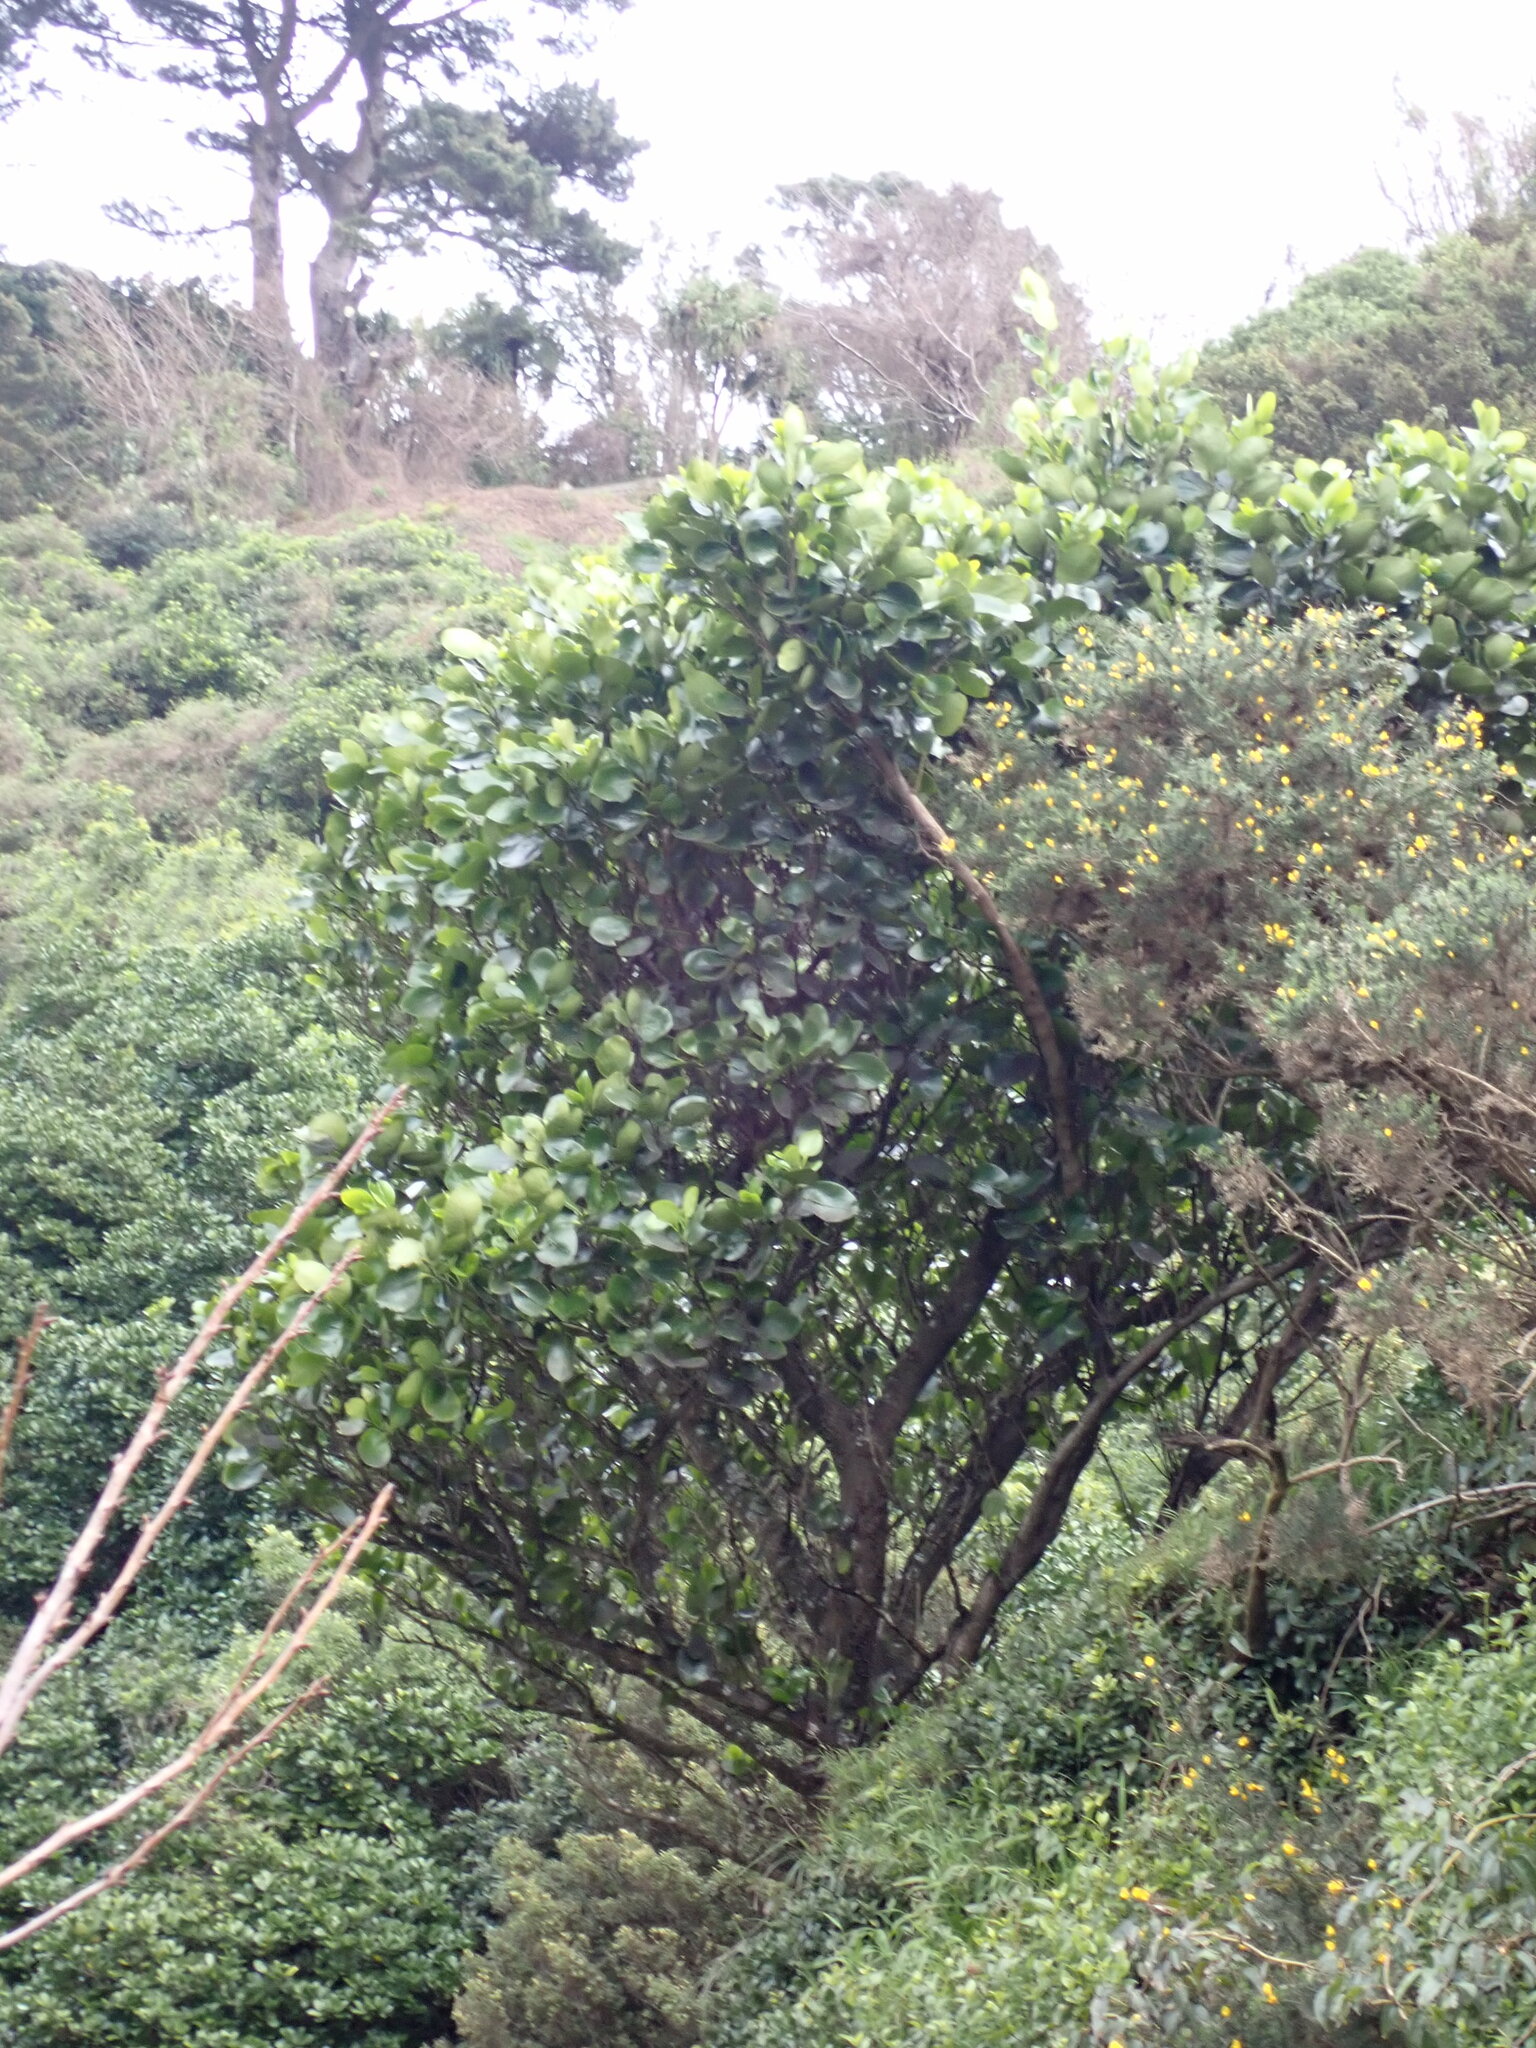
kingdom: Plantae
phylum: Tracheophyta
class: Magnoliopsida
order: Apiales
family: Griseliniaceae
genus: Griselinia
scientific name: Griselinia lucida
